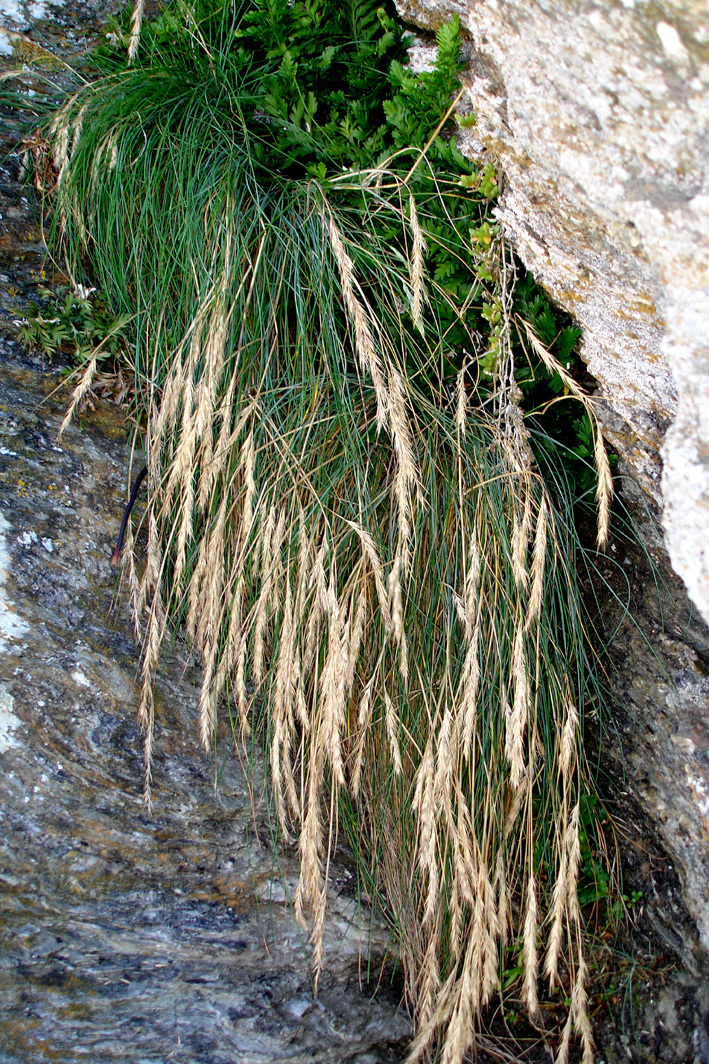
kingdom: Plantae
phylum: Tracheophyta
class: Liliopsida
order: Poales
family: Poaceae
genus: Festuca
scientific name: Festuca coxii
